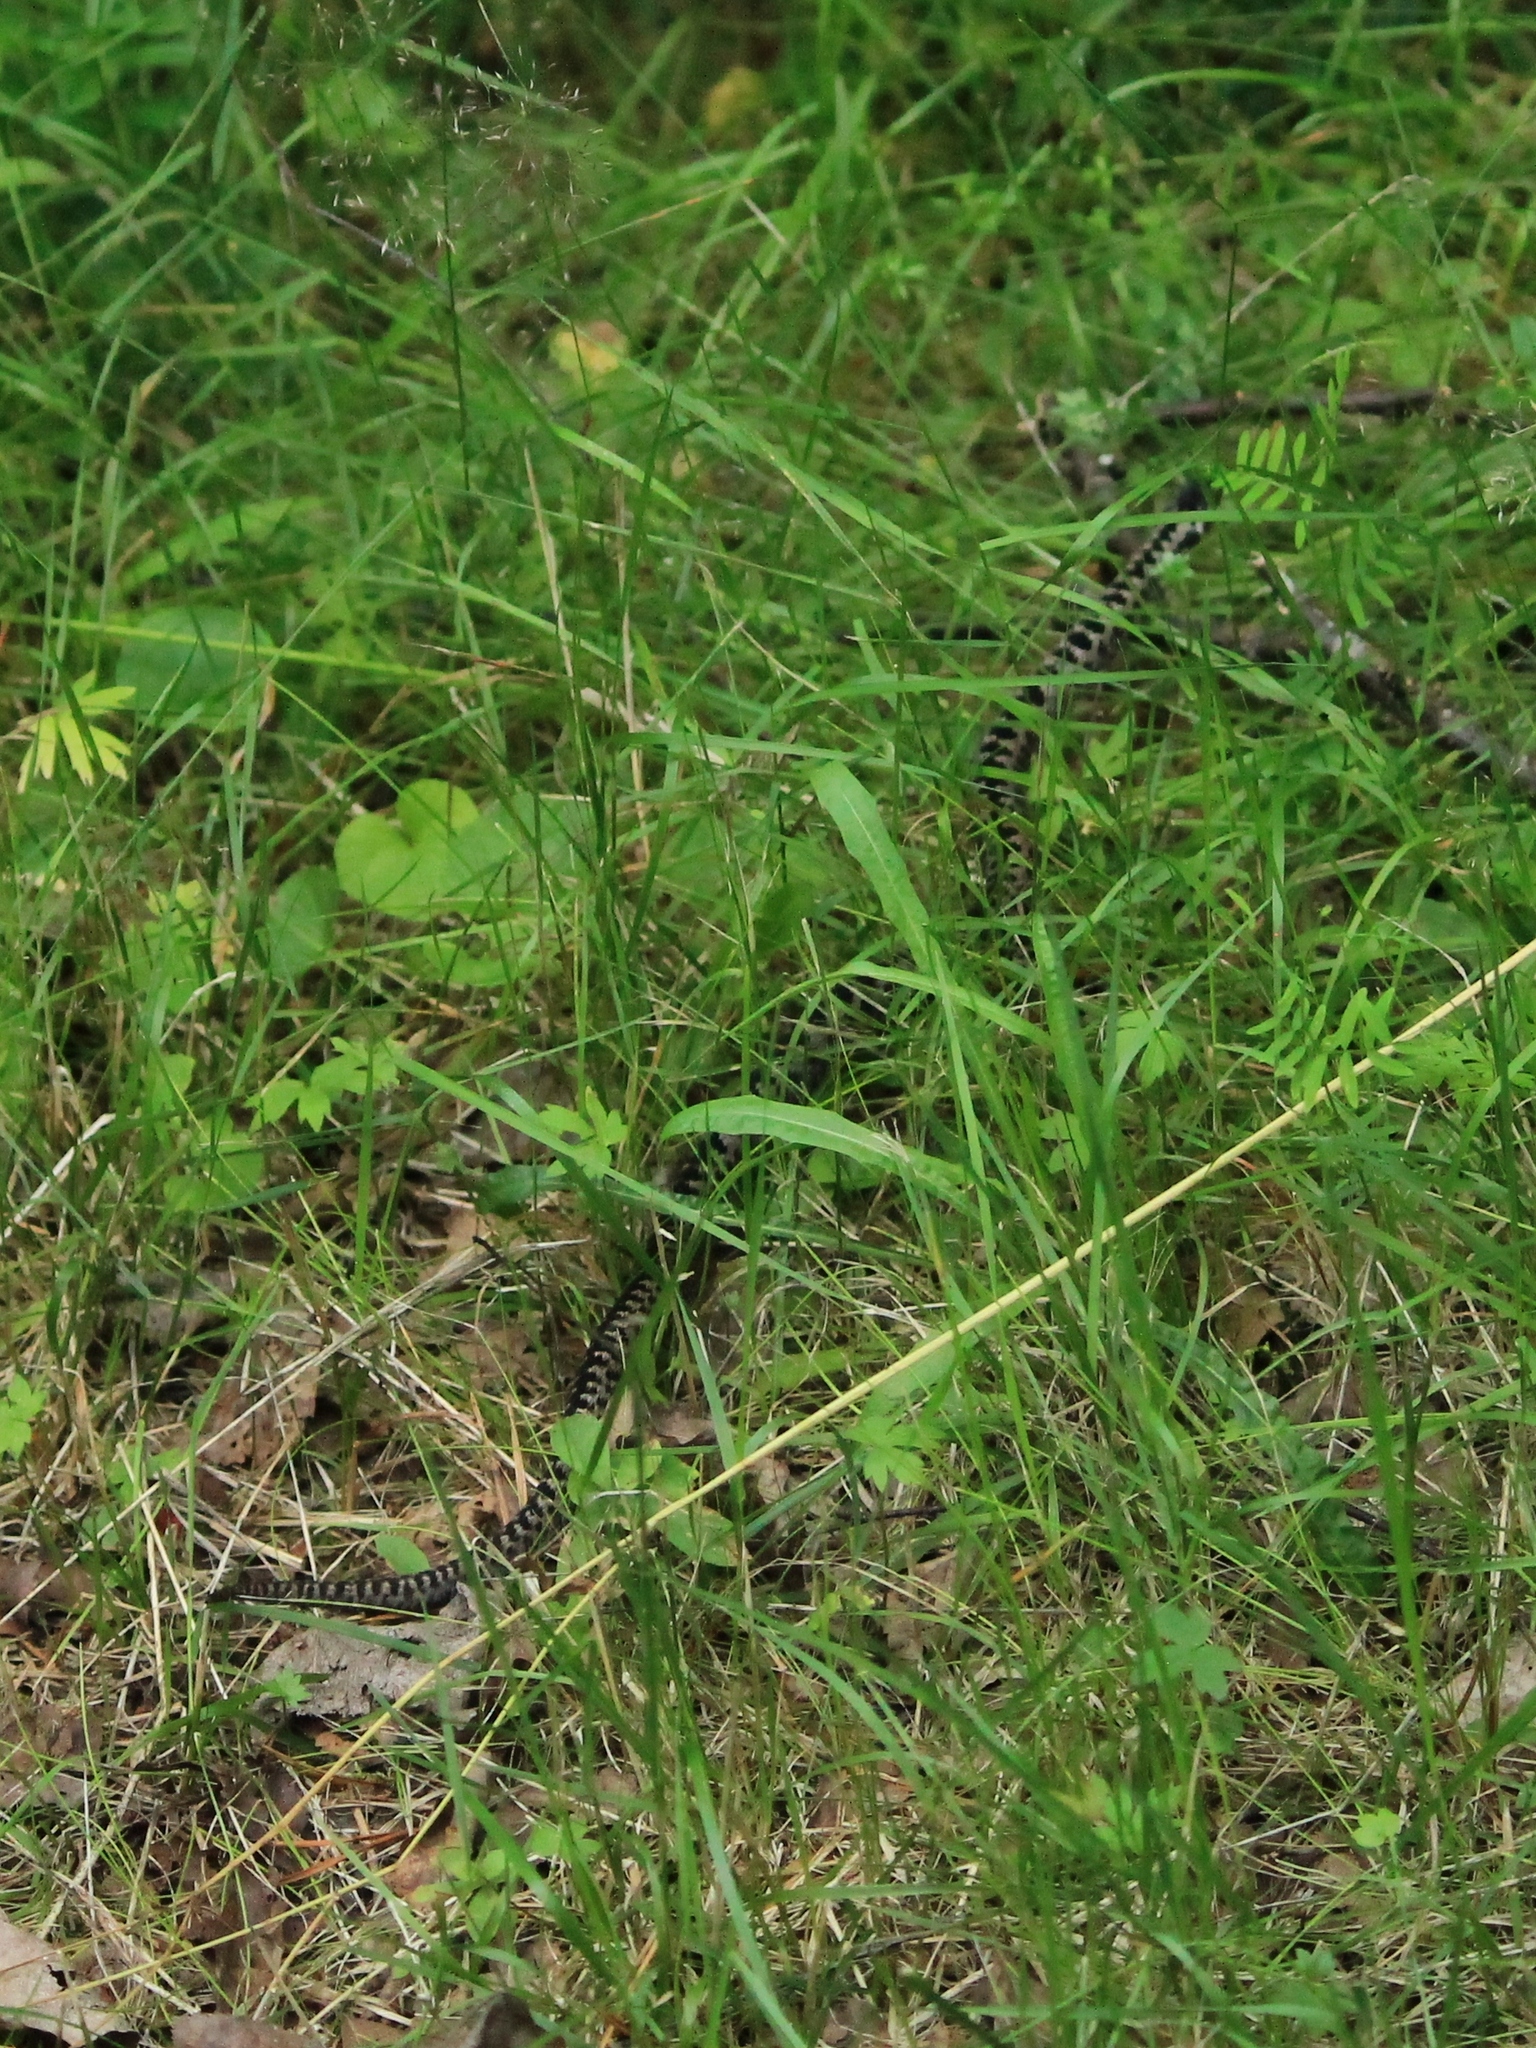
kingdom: Animalia
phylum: Chordata
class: Squamata
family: Viperidae
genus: Vipera
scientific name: Vipera berus
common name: Adder
